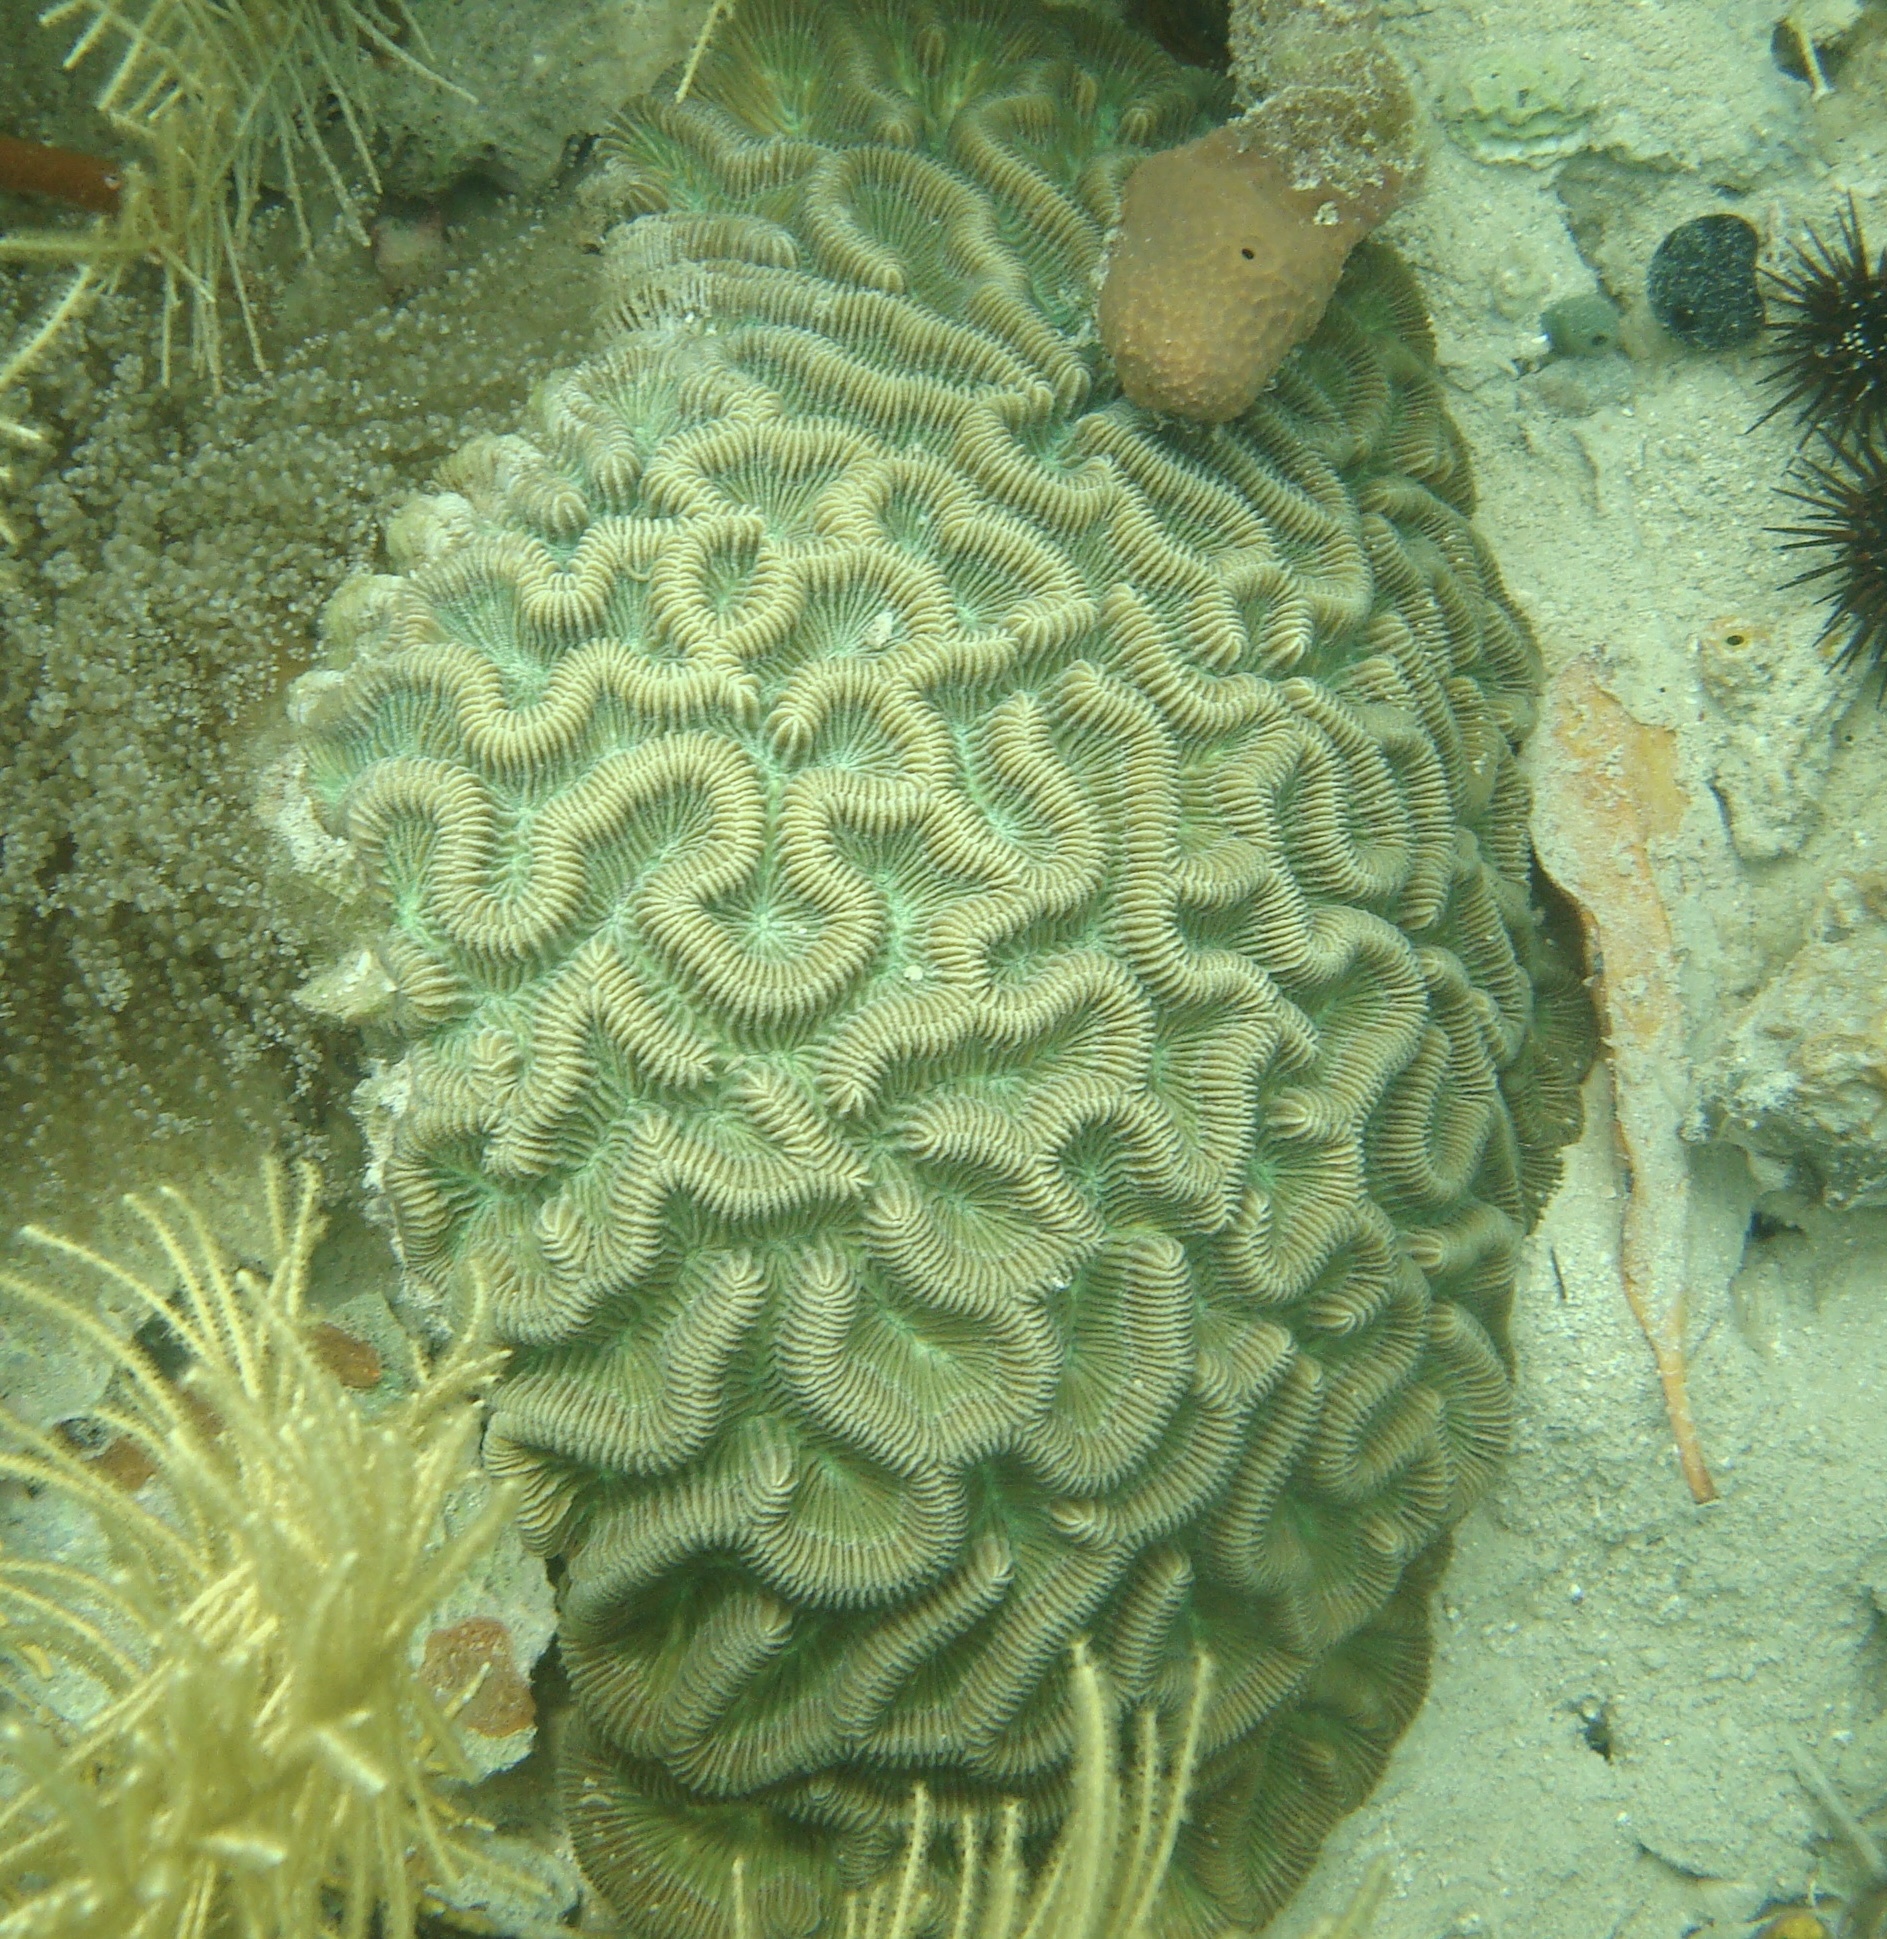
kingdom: Animalia
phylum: Cnidaria
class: Anthozoa
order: Scleractinia
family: Faviidae
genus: Colpophyllia
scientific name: Colpophyllia natans
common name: Boulder brain coral
